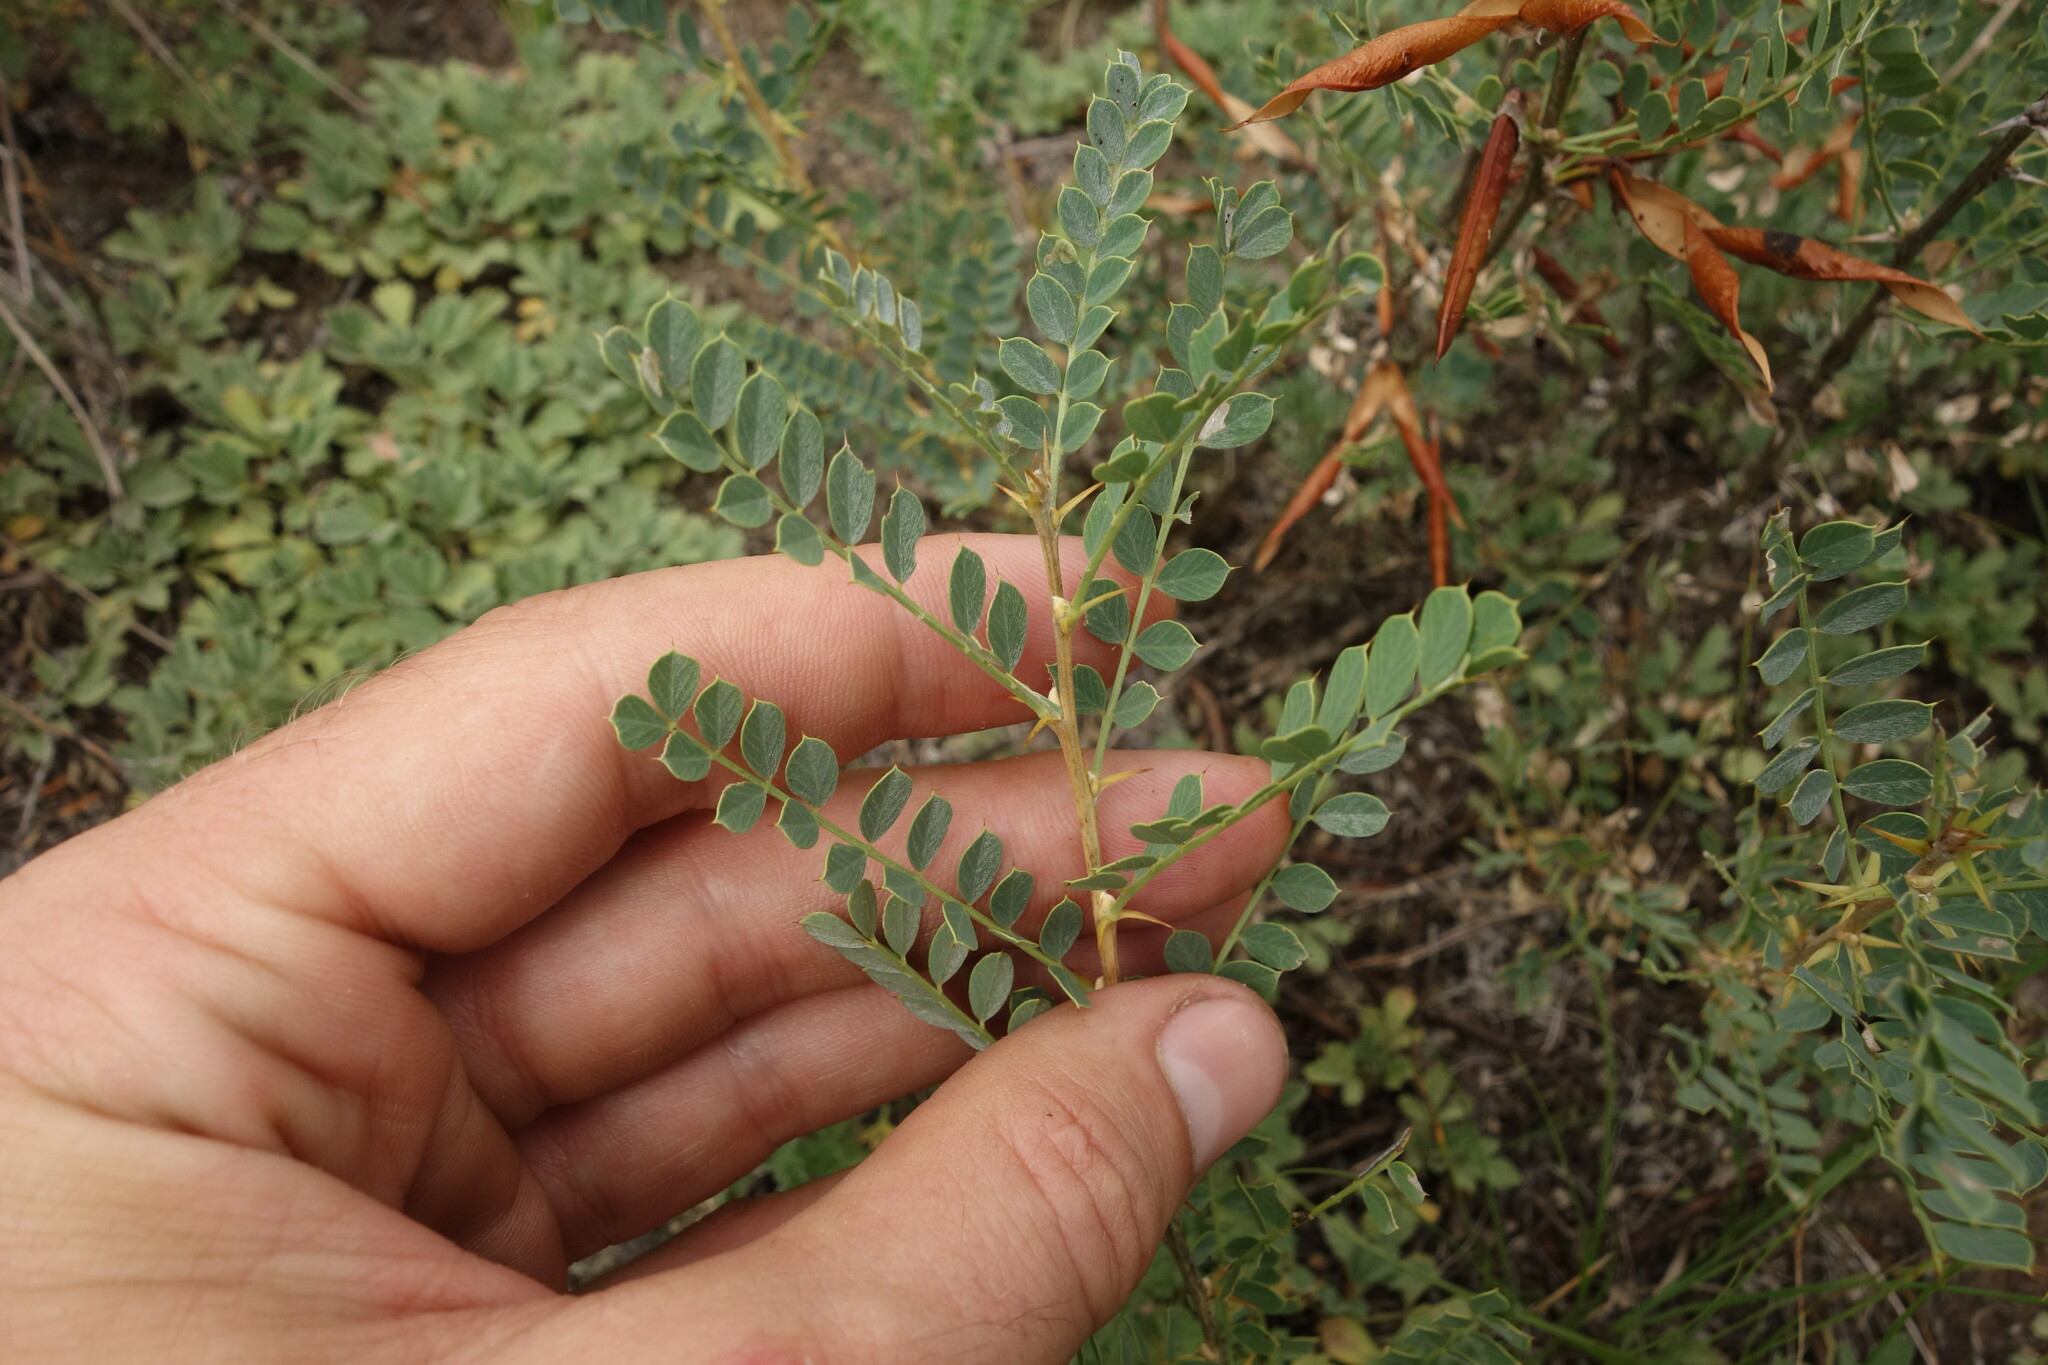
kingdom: Plantae
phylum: Tracheophyta
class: Magnoliopsida
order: Fabales
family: Fabaceae
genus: Caragana
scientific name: Caragana buriatica
